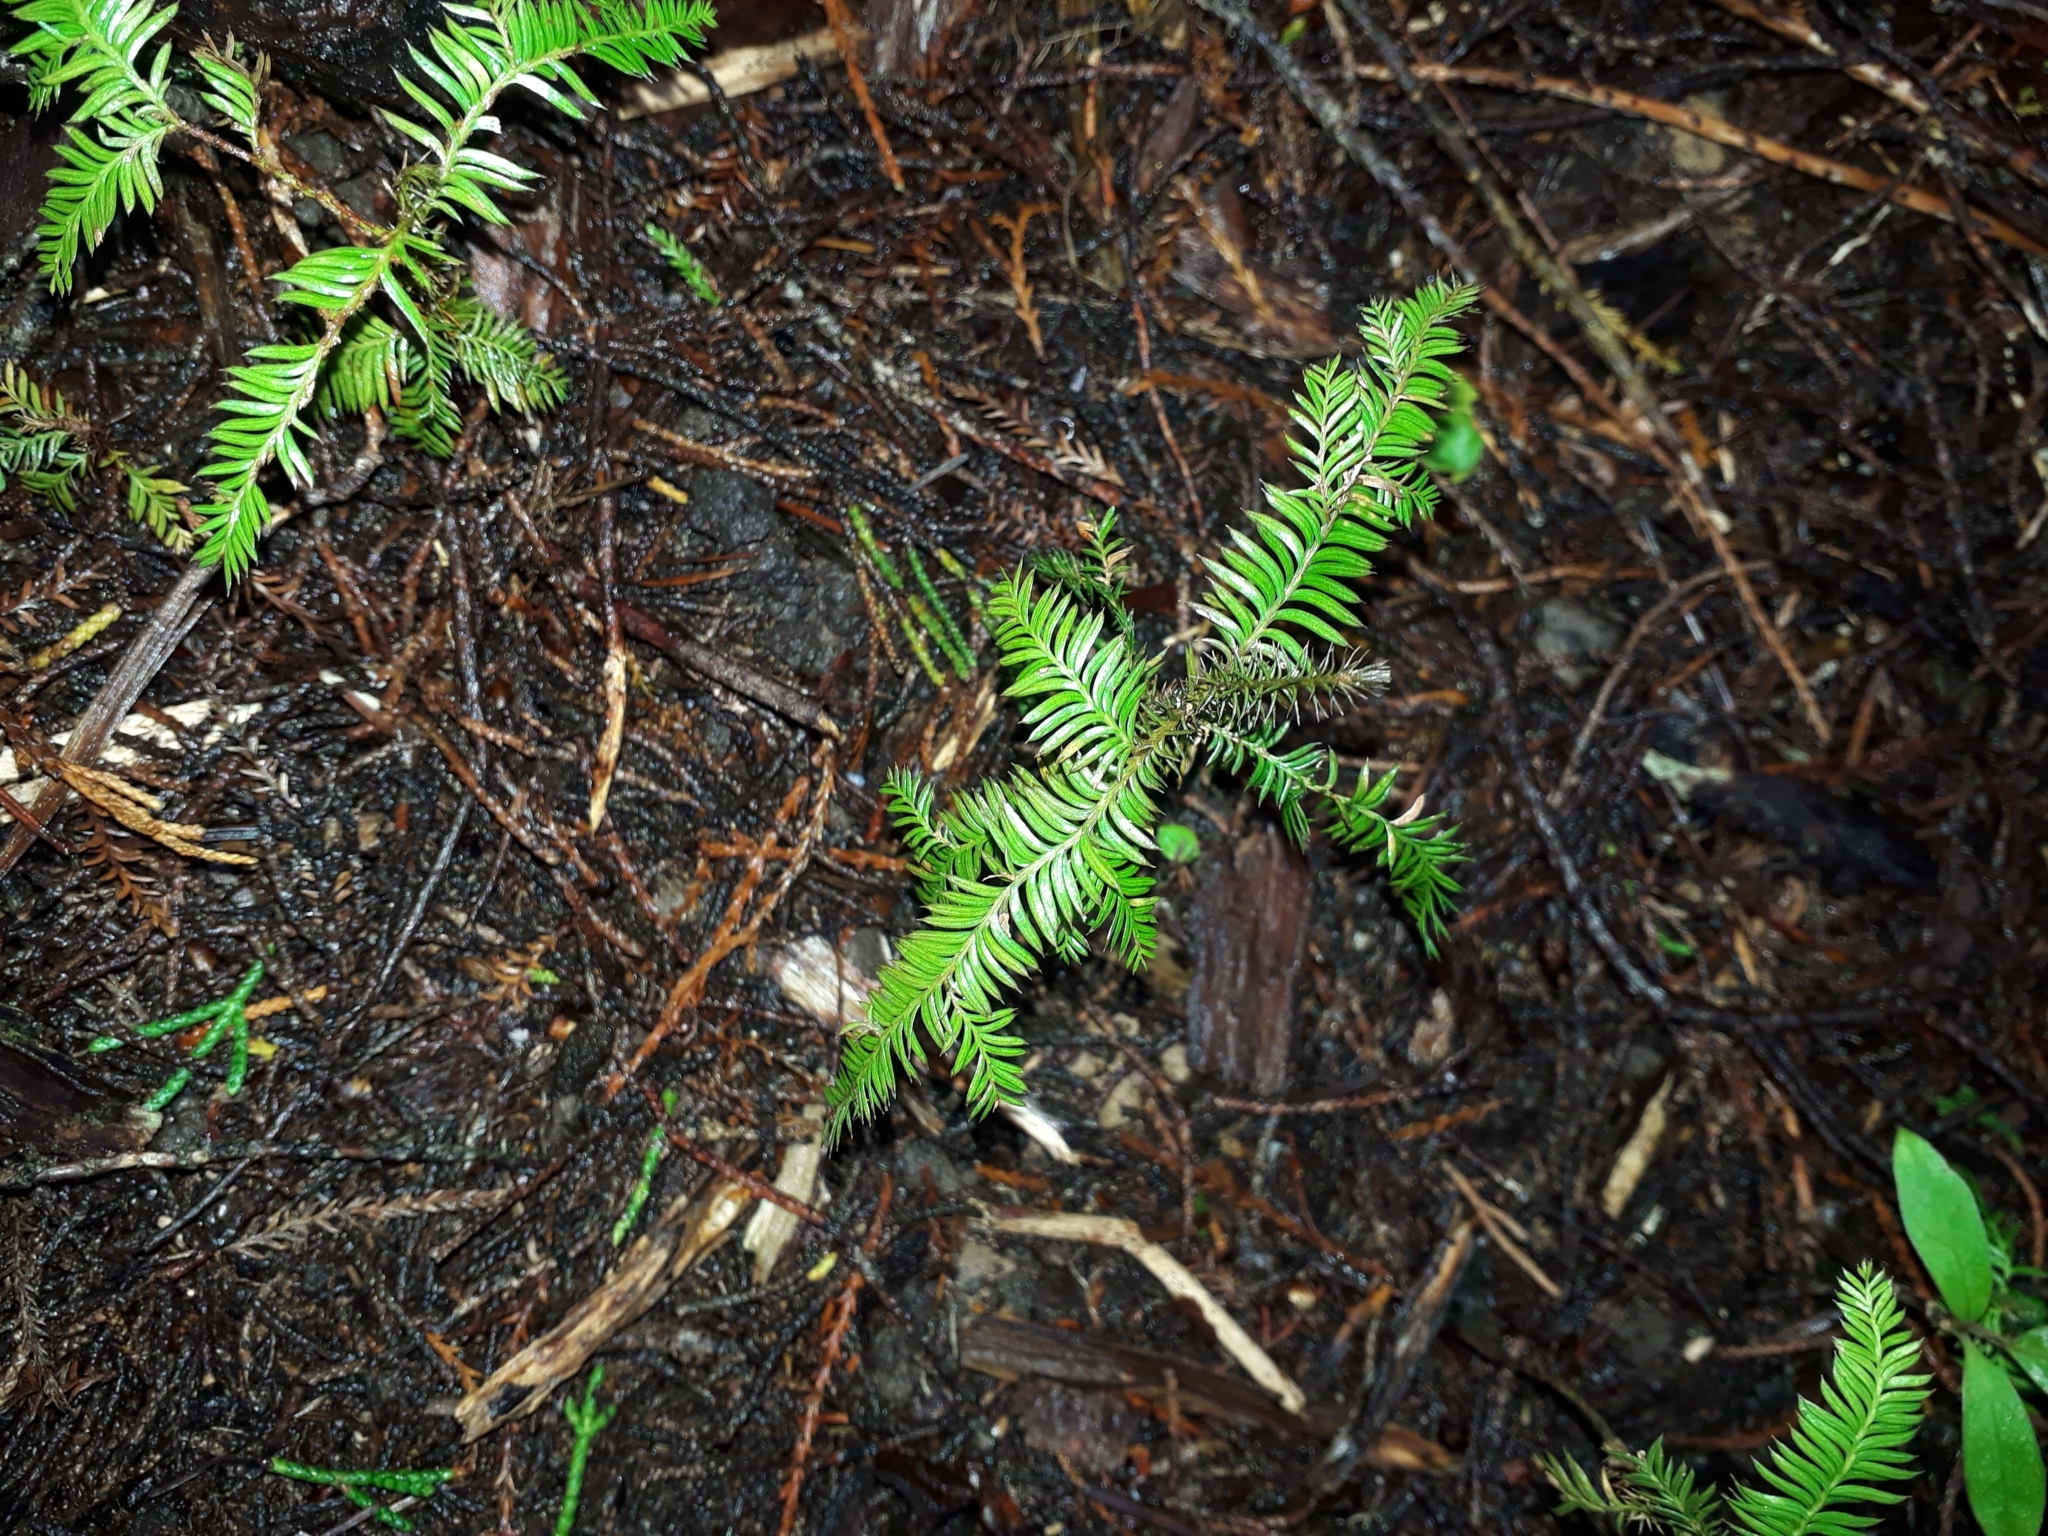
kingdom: Plantae
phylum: Tracheophyta
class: Pinopsida
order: Pinales
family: Podocarpaceae
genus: Dacrycarpus
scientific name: Dacrycarpus dacrydioides
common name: White pine
